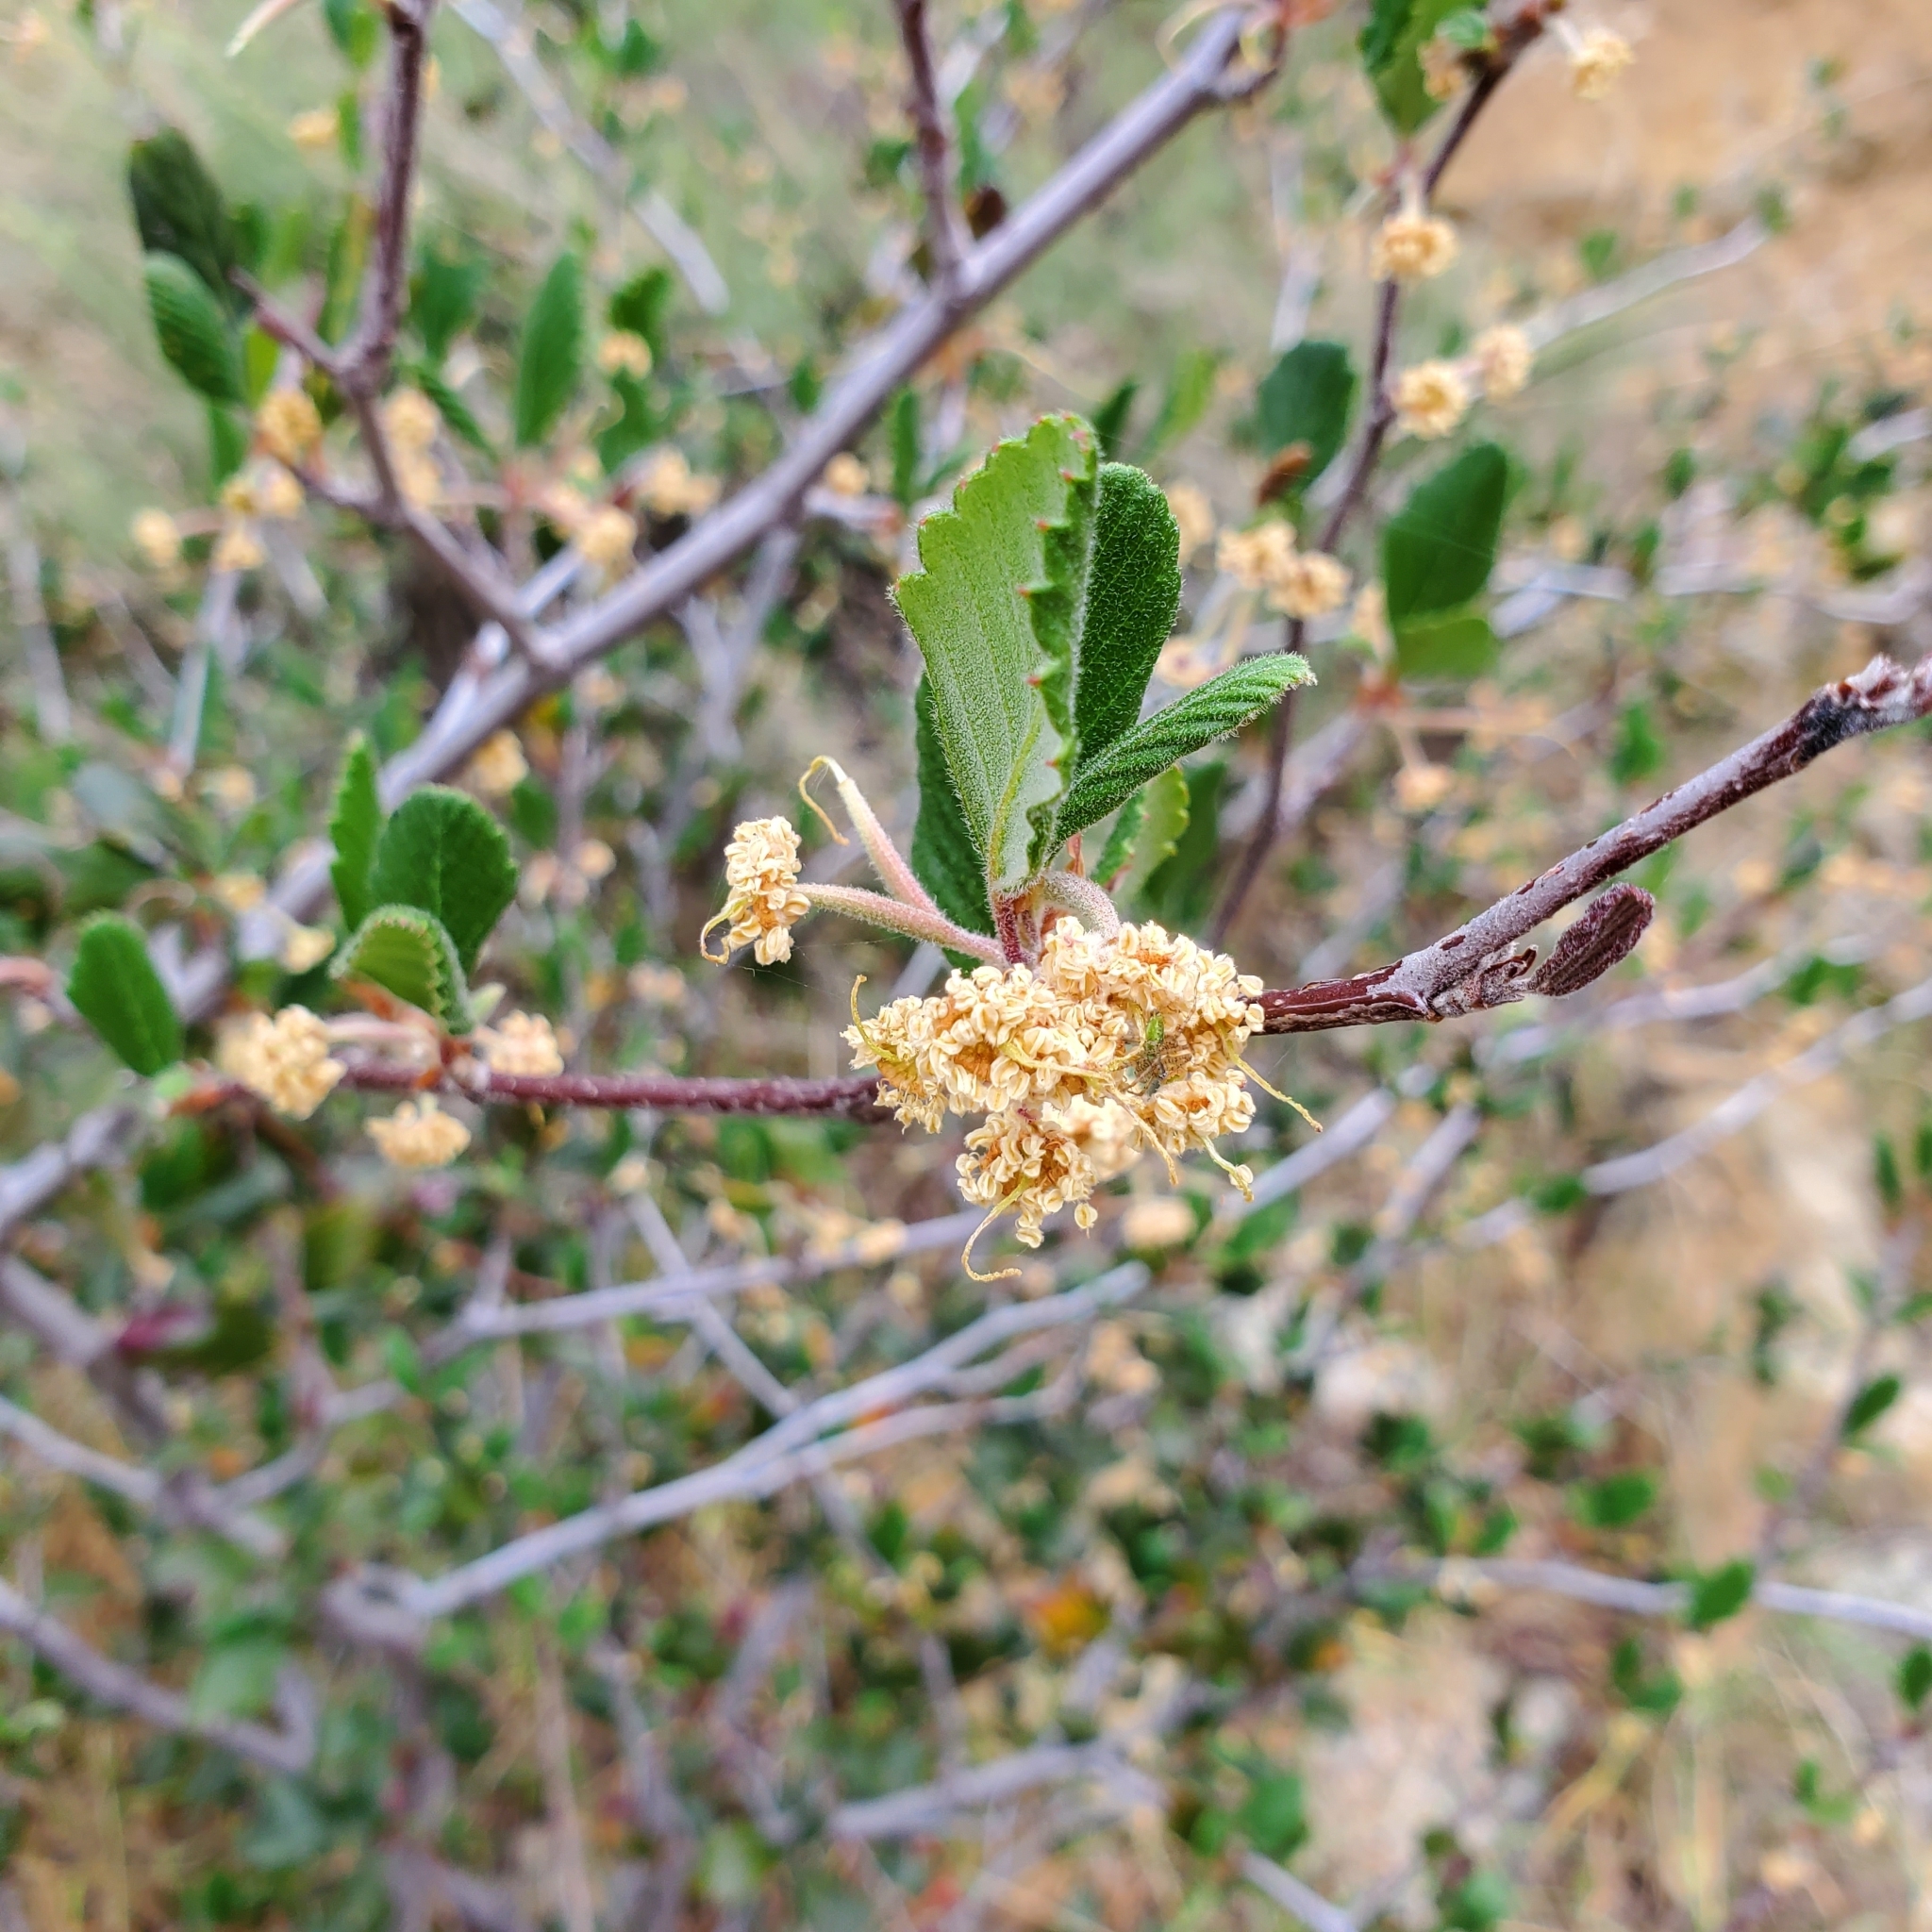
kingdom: Plantae
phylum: Tracheophyta
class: Magnoliopsida
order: Rosales
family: Rosaceae
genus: Cercocarpus
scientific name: Cercocarpus betuloides
